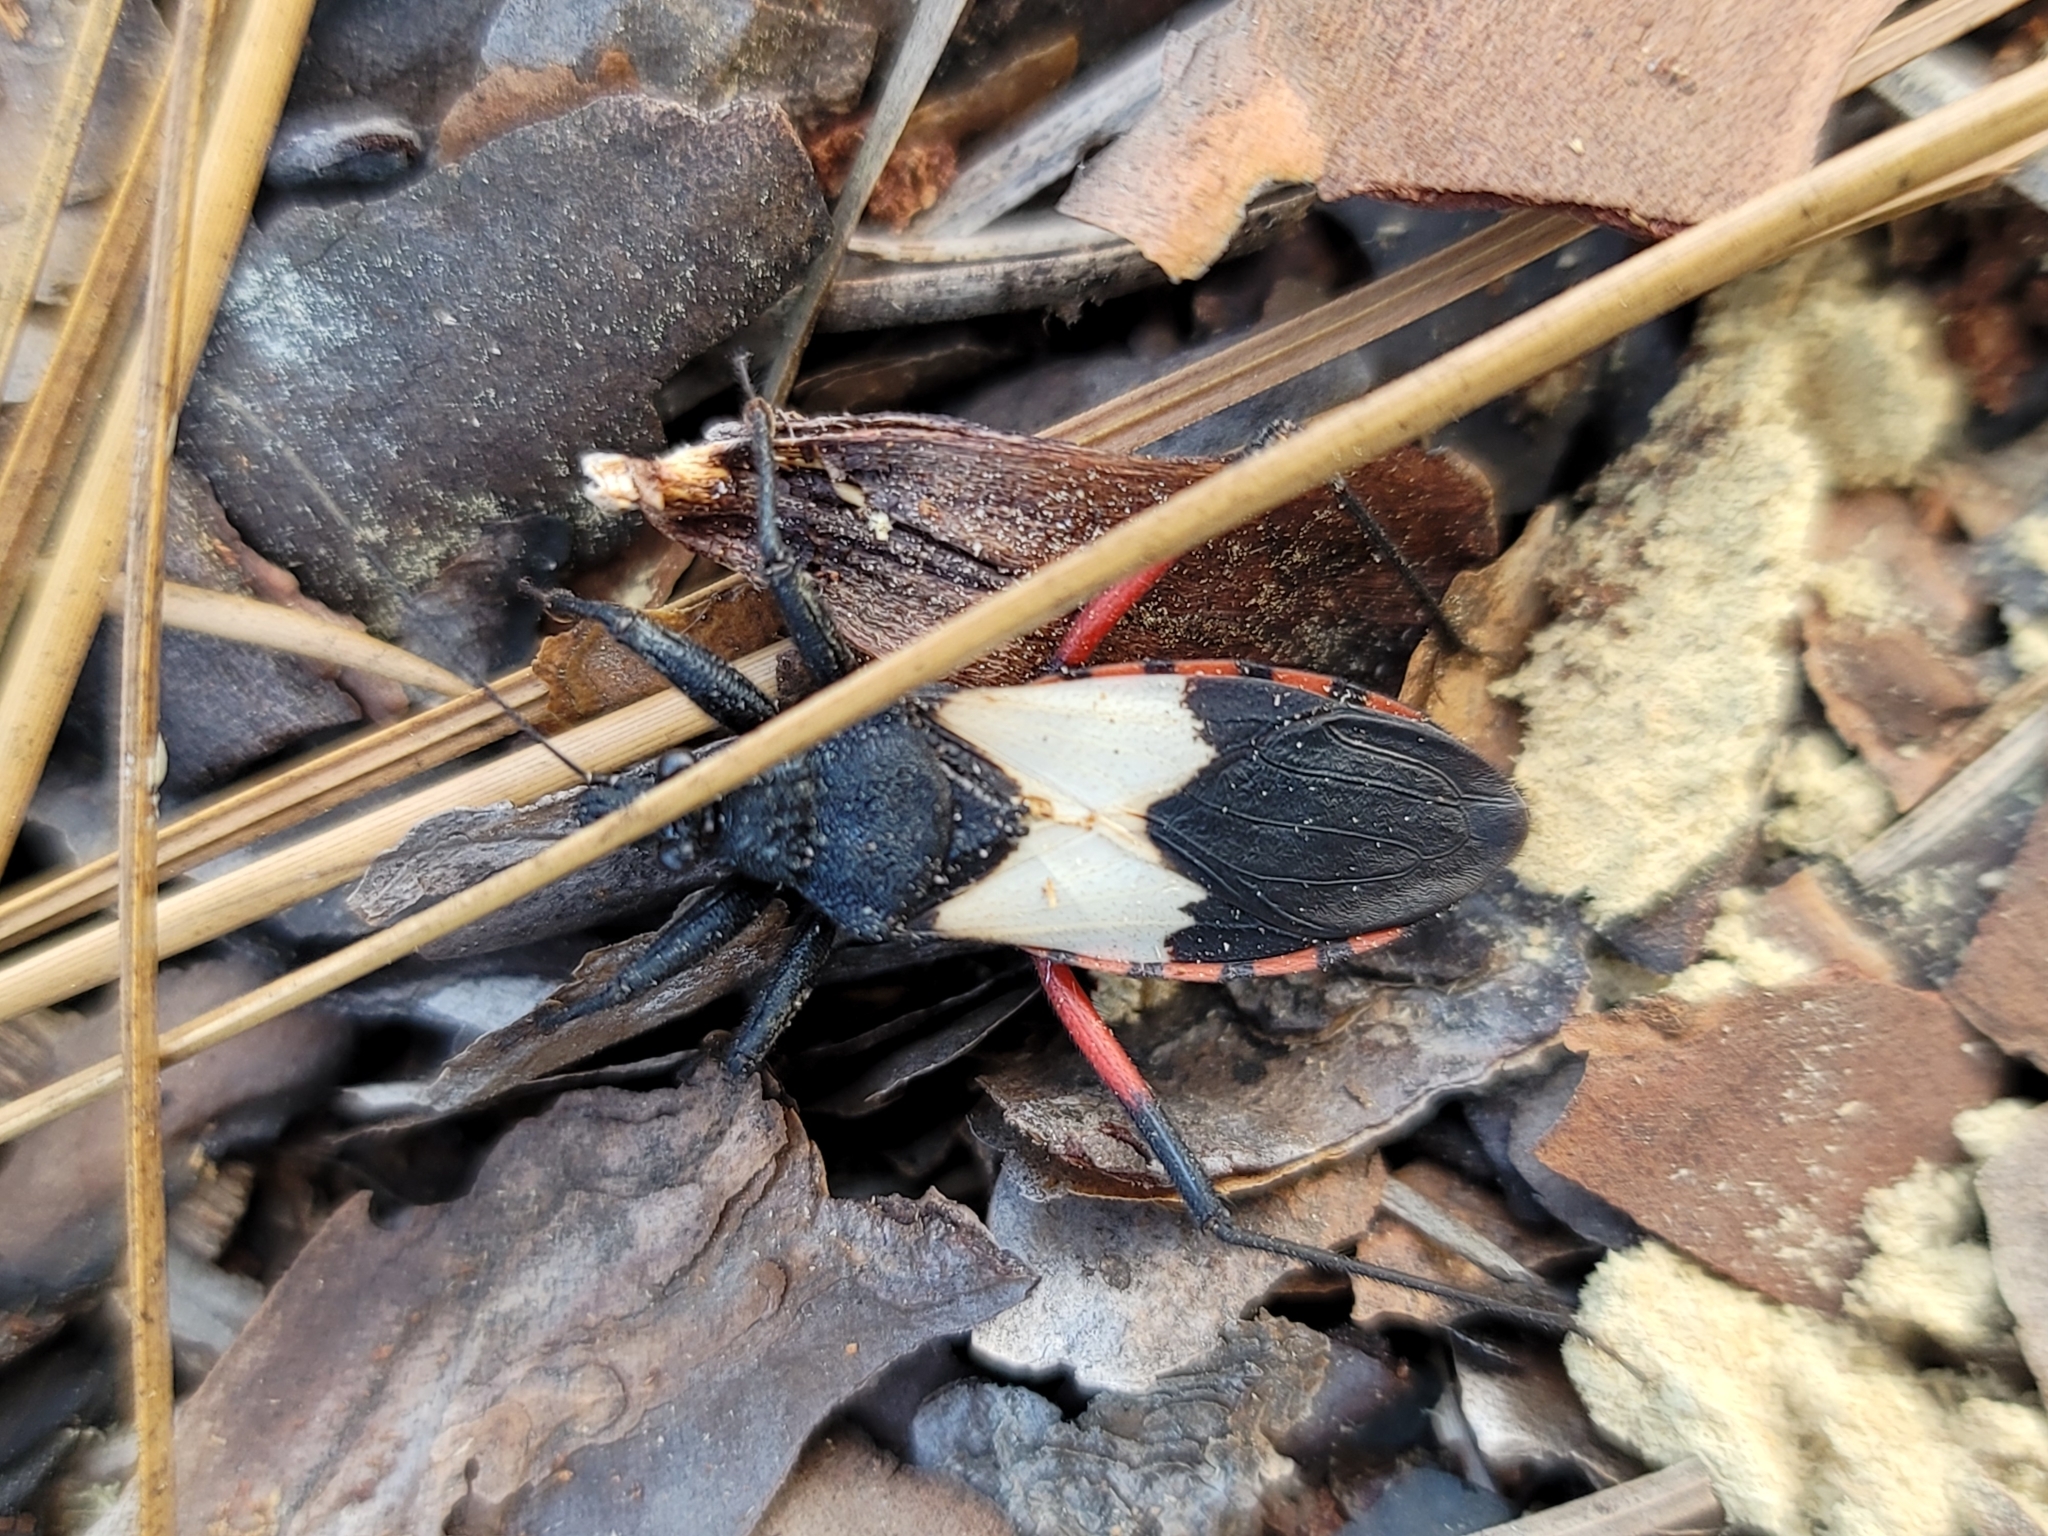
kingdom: Animalia
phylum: Arthropoda
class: Insecta
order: Hemiptera
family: Reduviidae
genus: Microtomus
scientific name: Microtomus purcis
